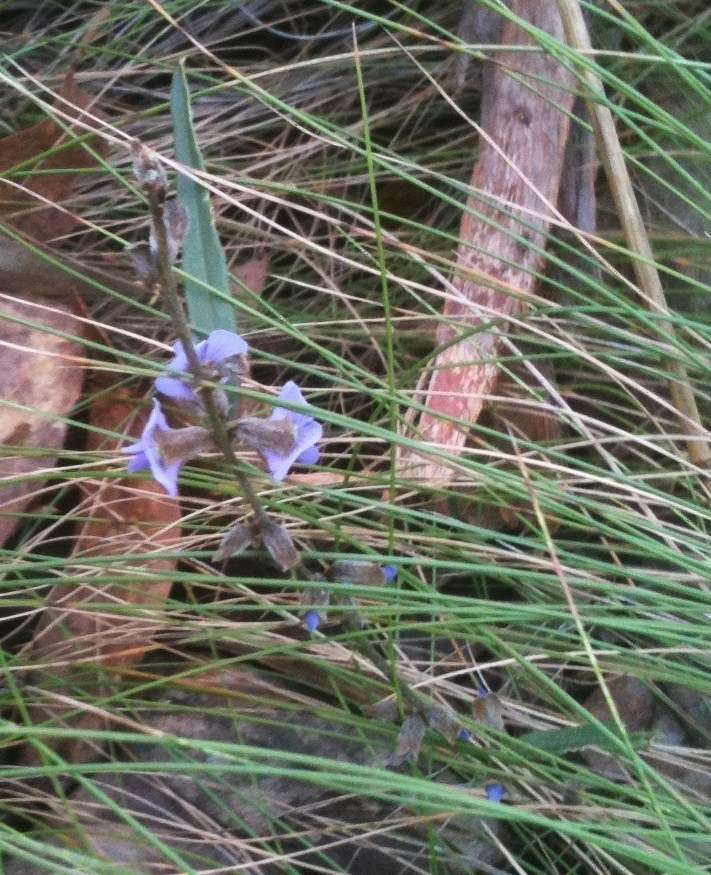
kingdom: Plantae
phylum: Tracheophyta
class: Magnoliopsida
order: Fabales
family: Fabaceae
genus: Hovea
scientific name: Hovea heterophylla
